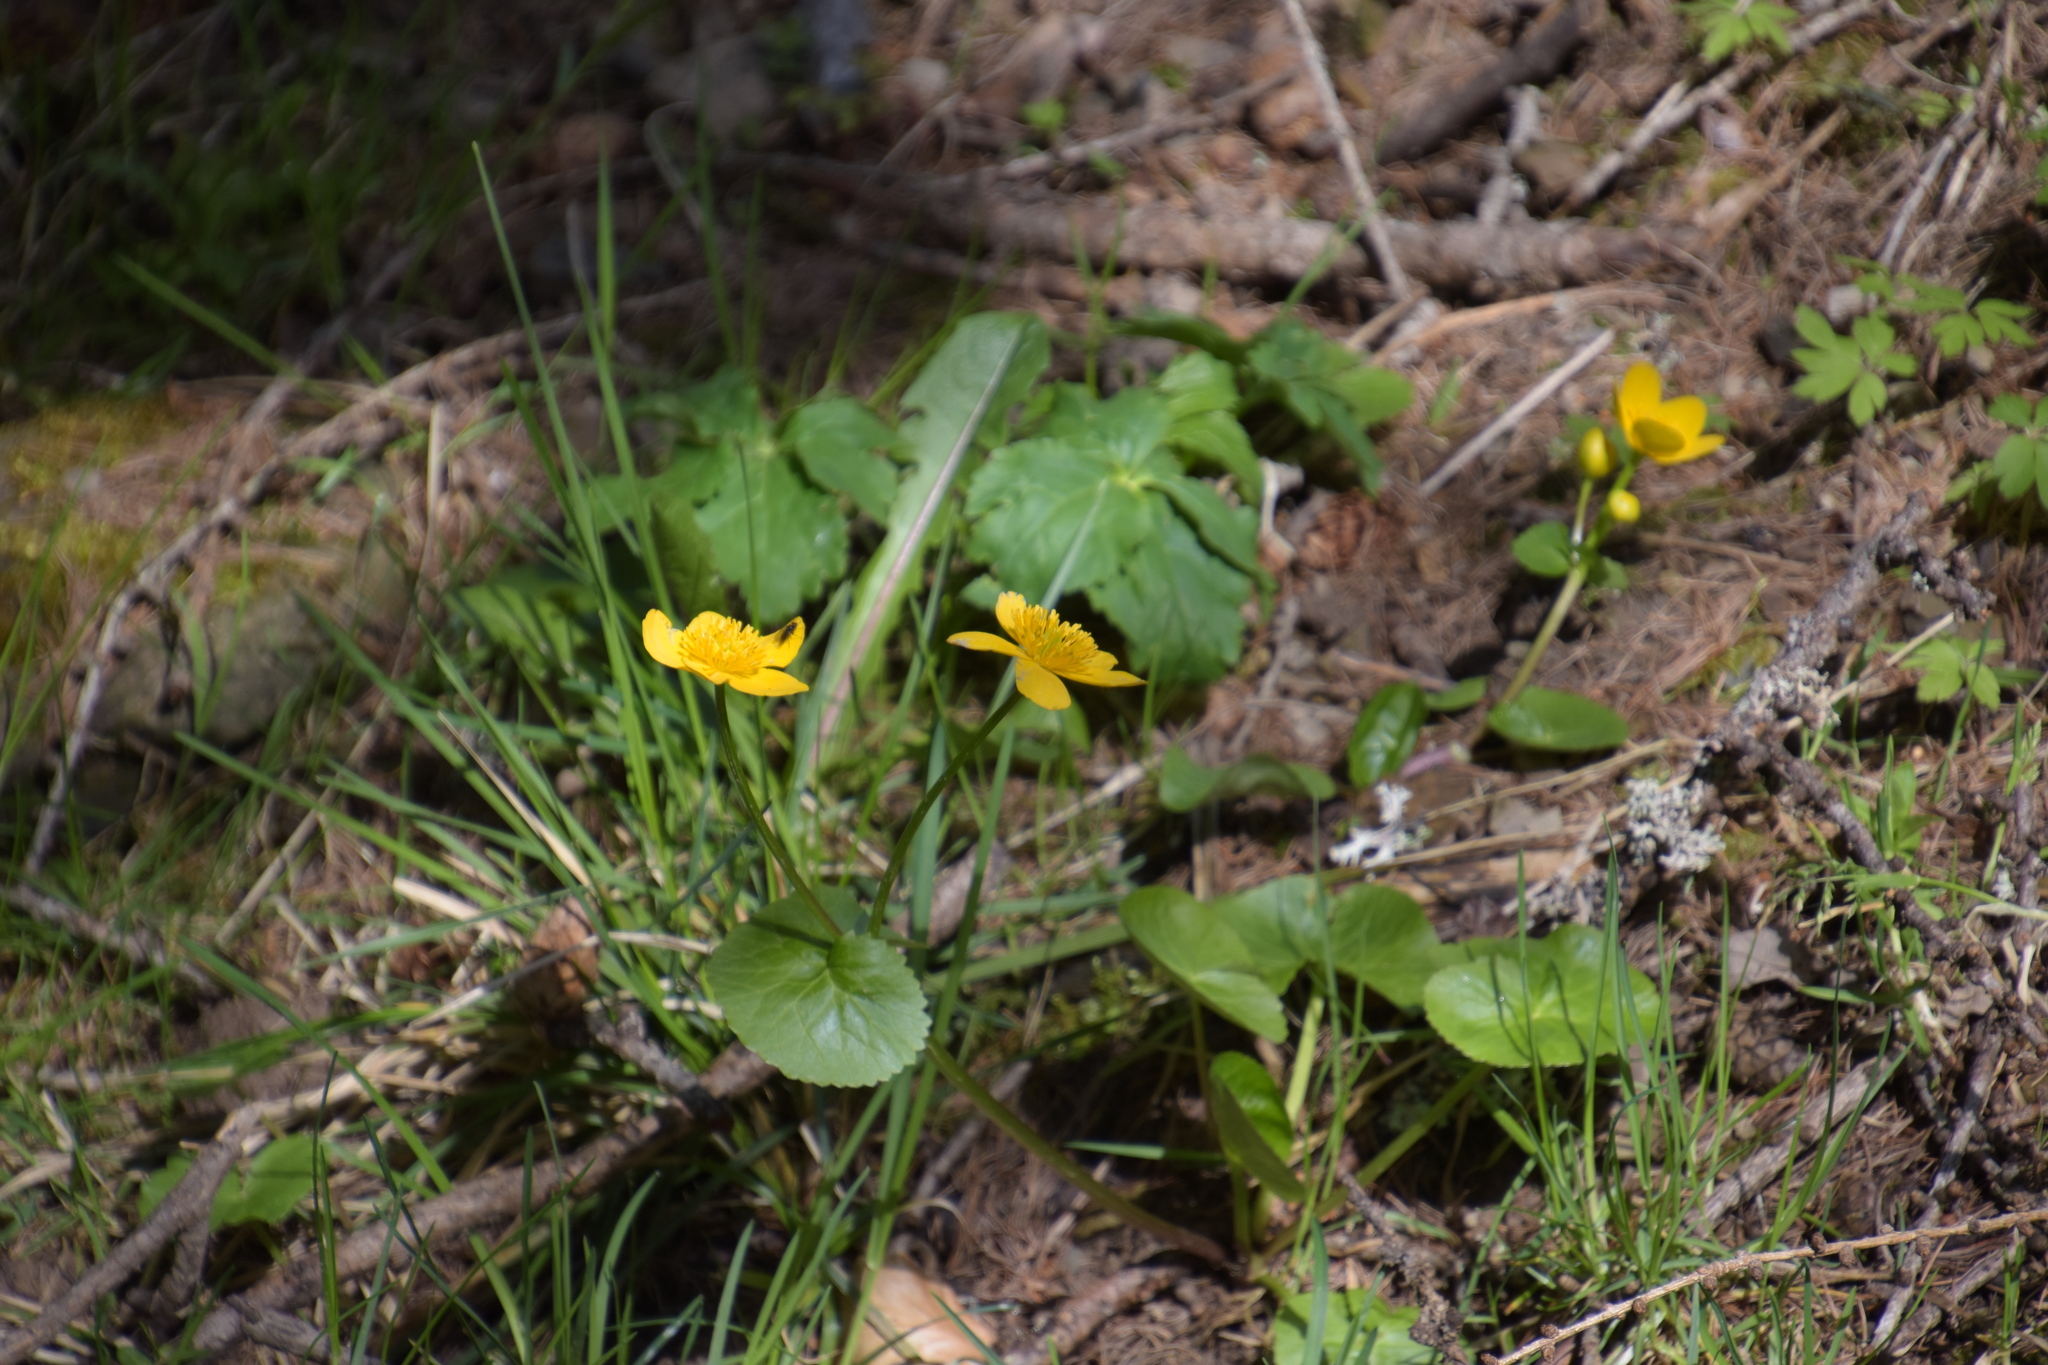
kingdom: Plantae
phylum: Tracheophyta
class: Magnoliopsida
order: Ranunculales
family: Ranunculaceae
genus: Caltha
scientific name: Caltha palustris
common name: Marsh marigold
